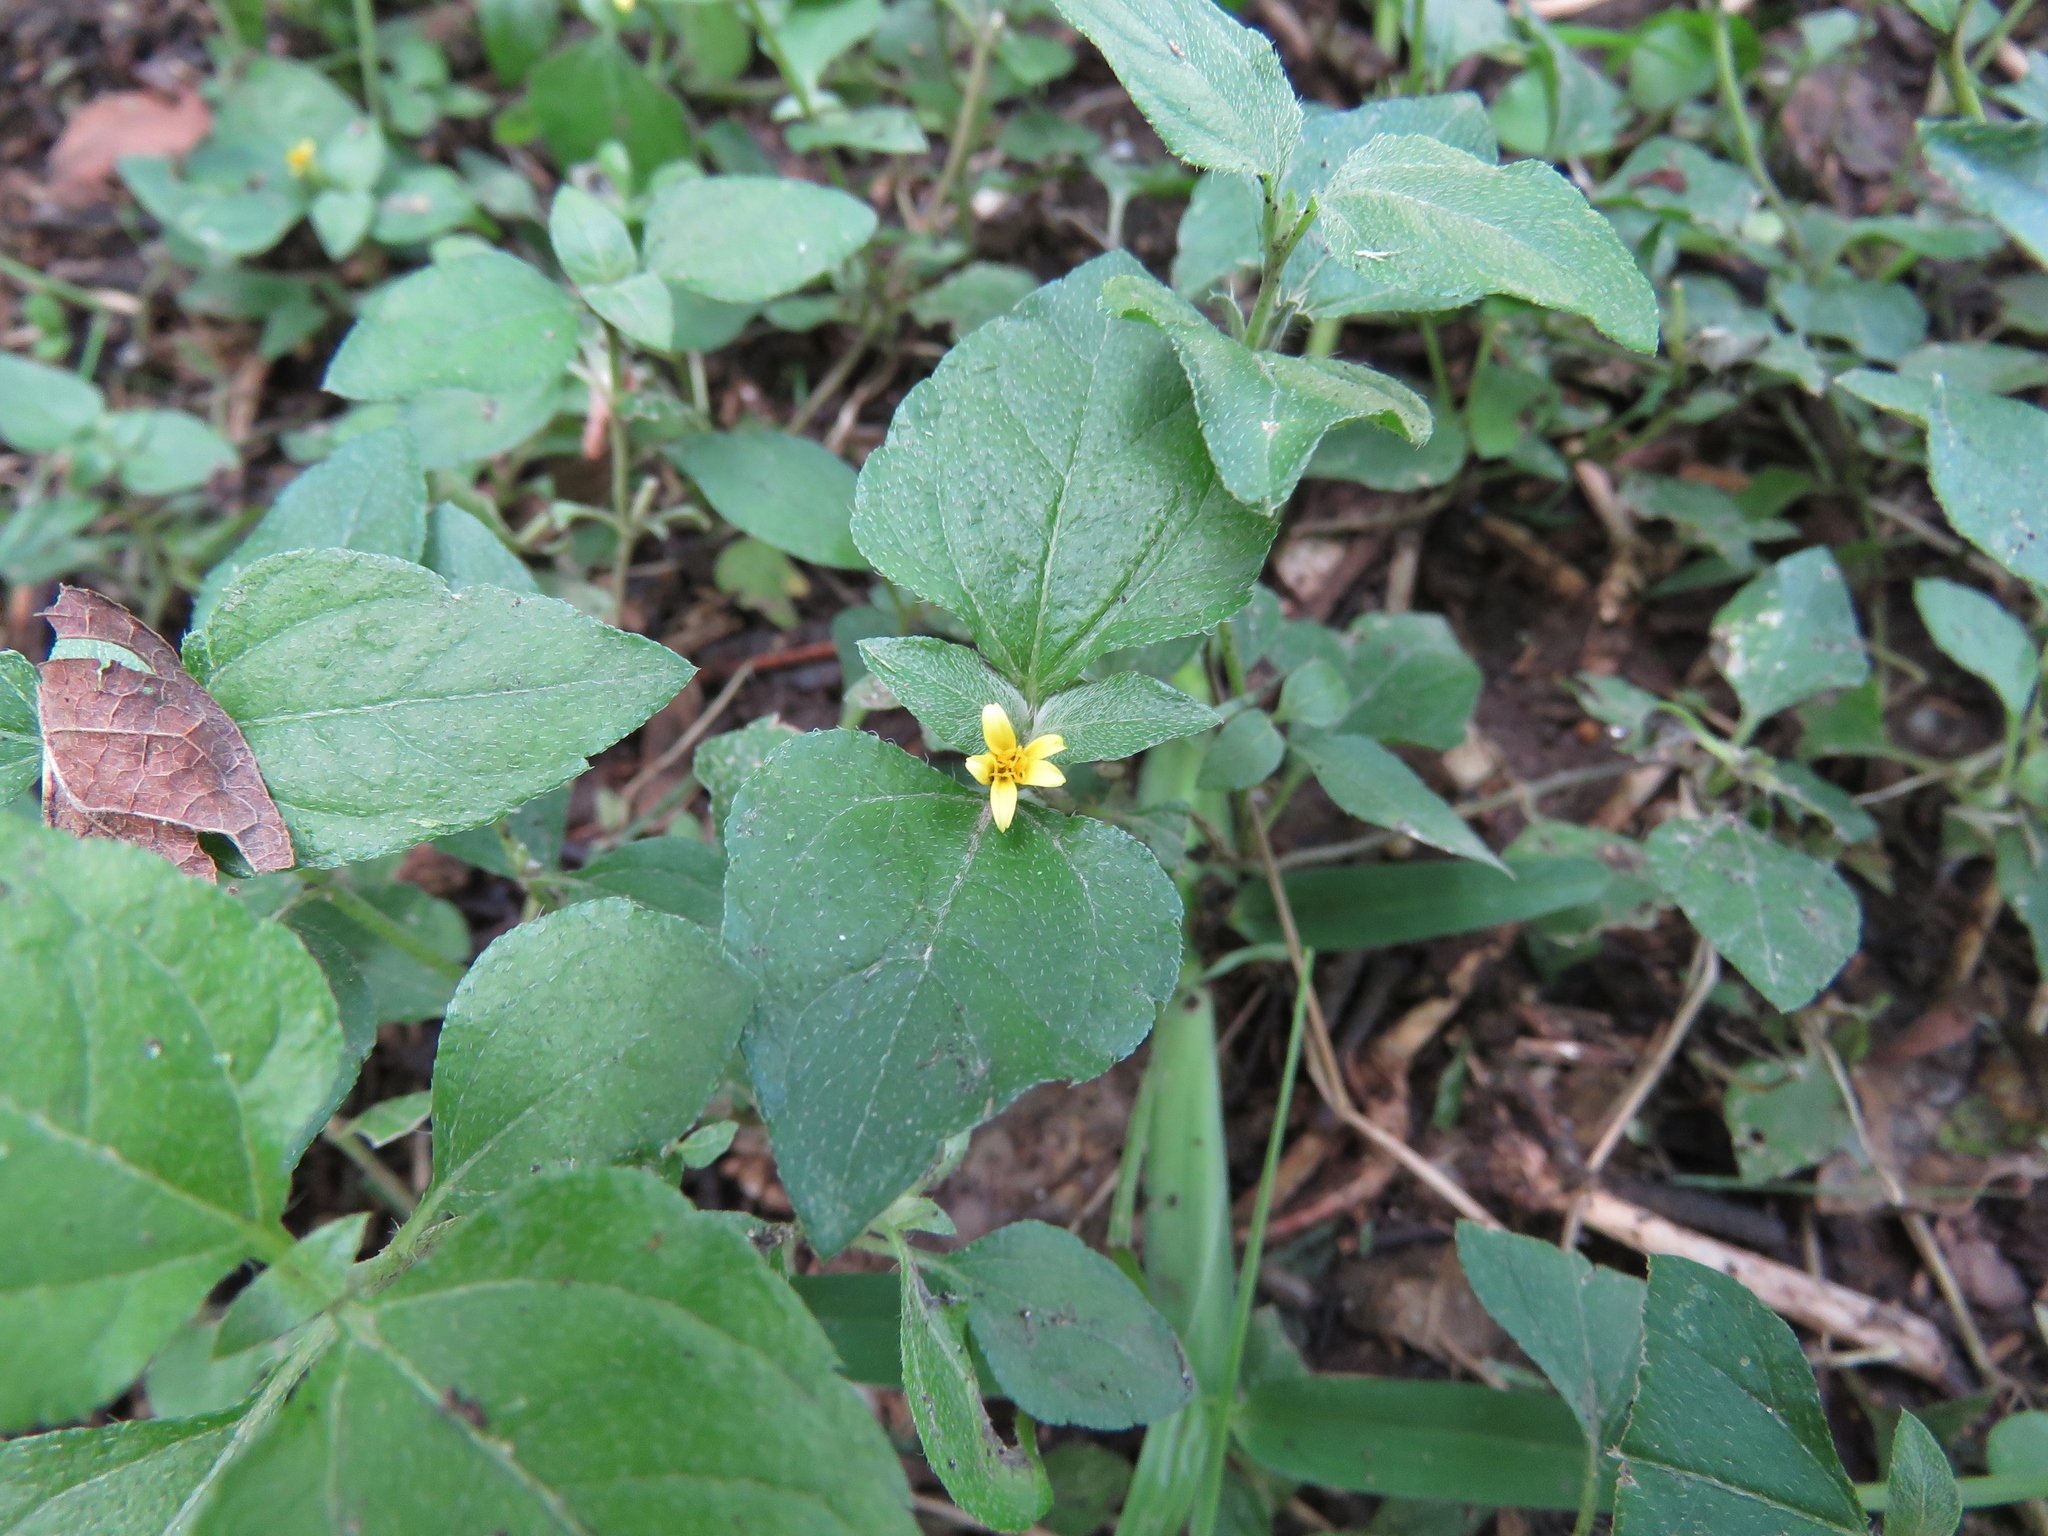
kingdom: Plantae
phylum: Tracheophyta
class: Magnoliopsida
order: Asterales
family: Asteraceae
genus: Calyptocarpus
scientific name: Calyptocarpus vialis
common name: Straggler daisy
